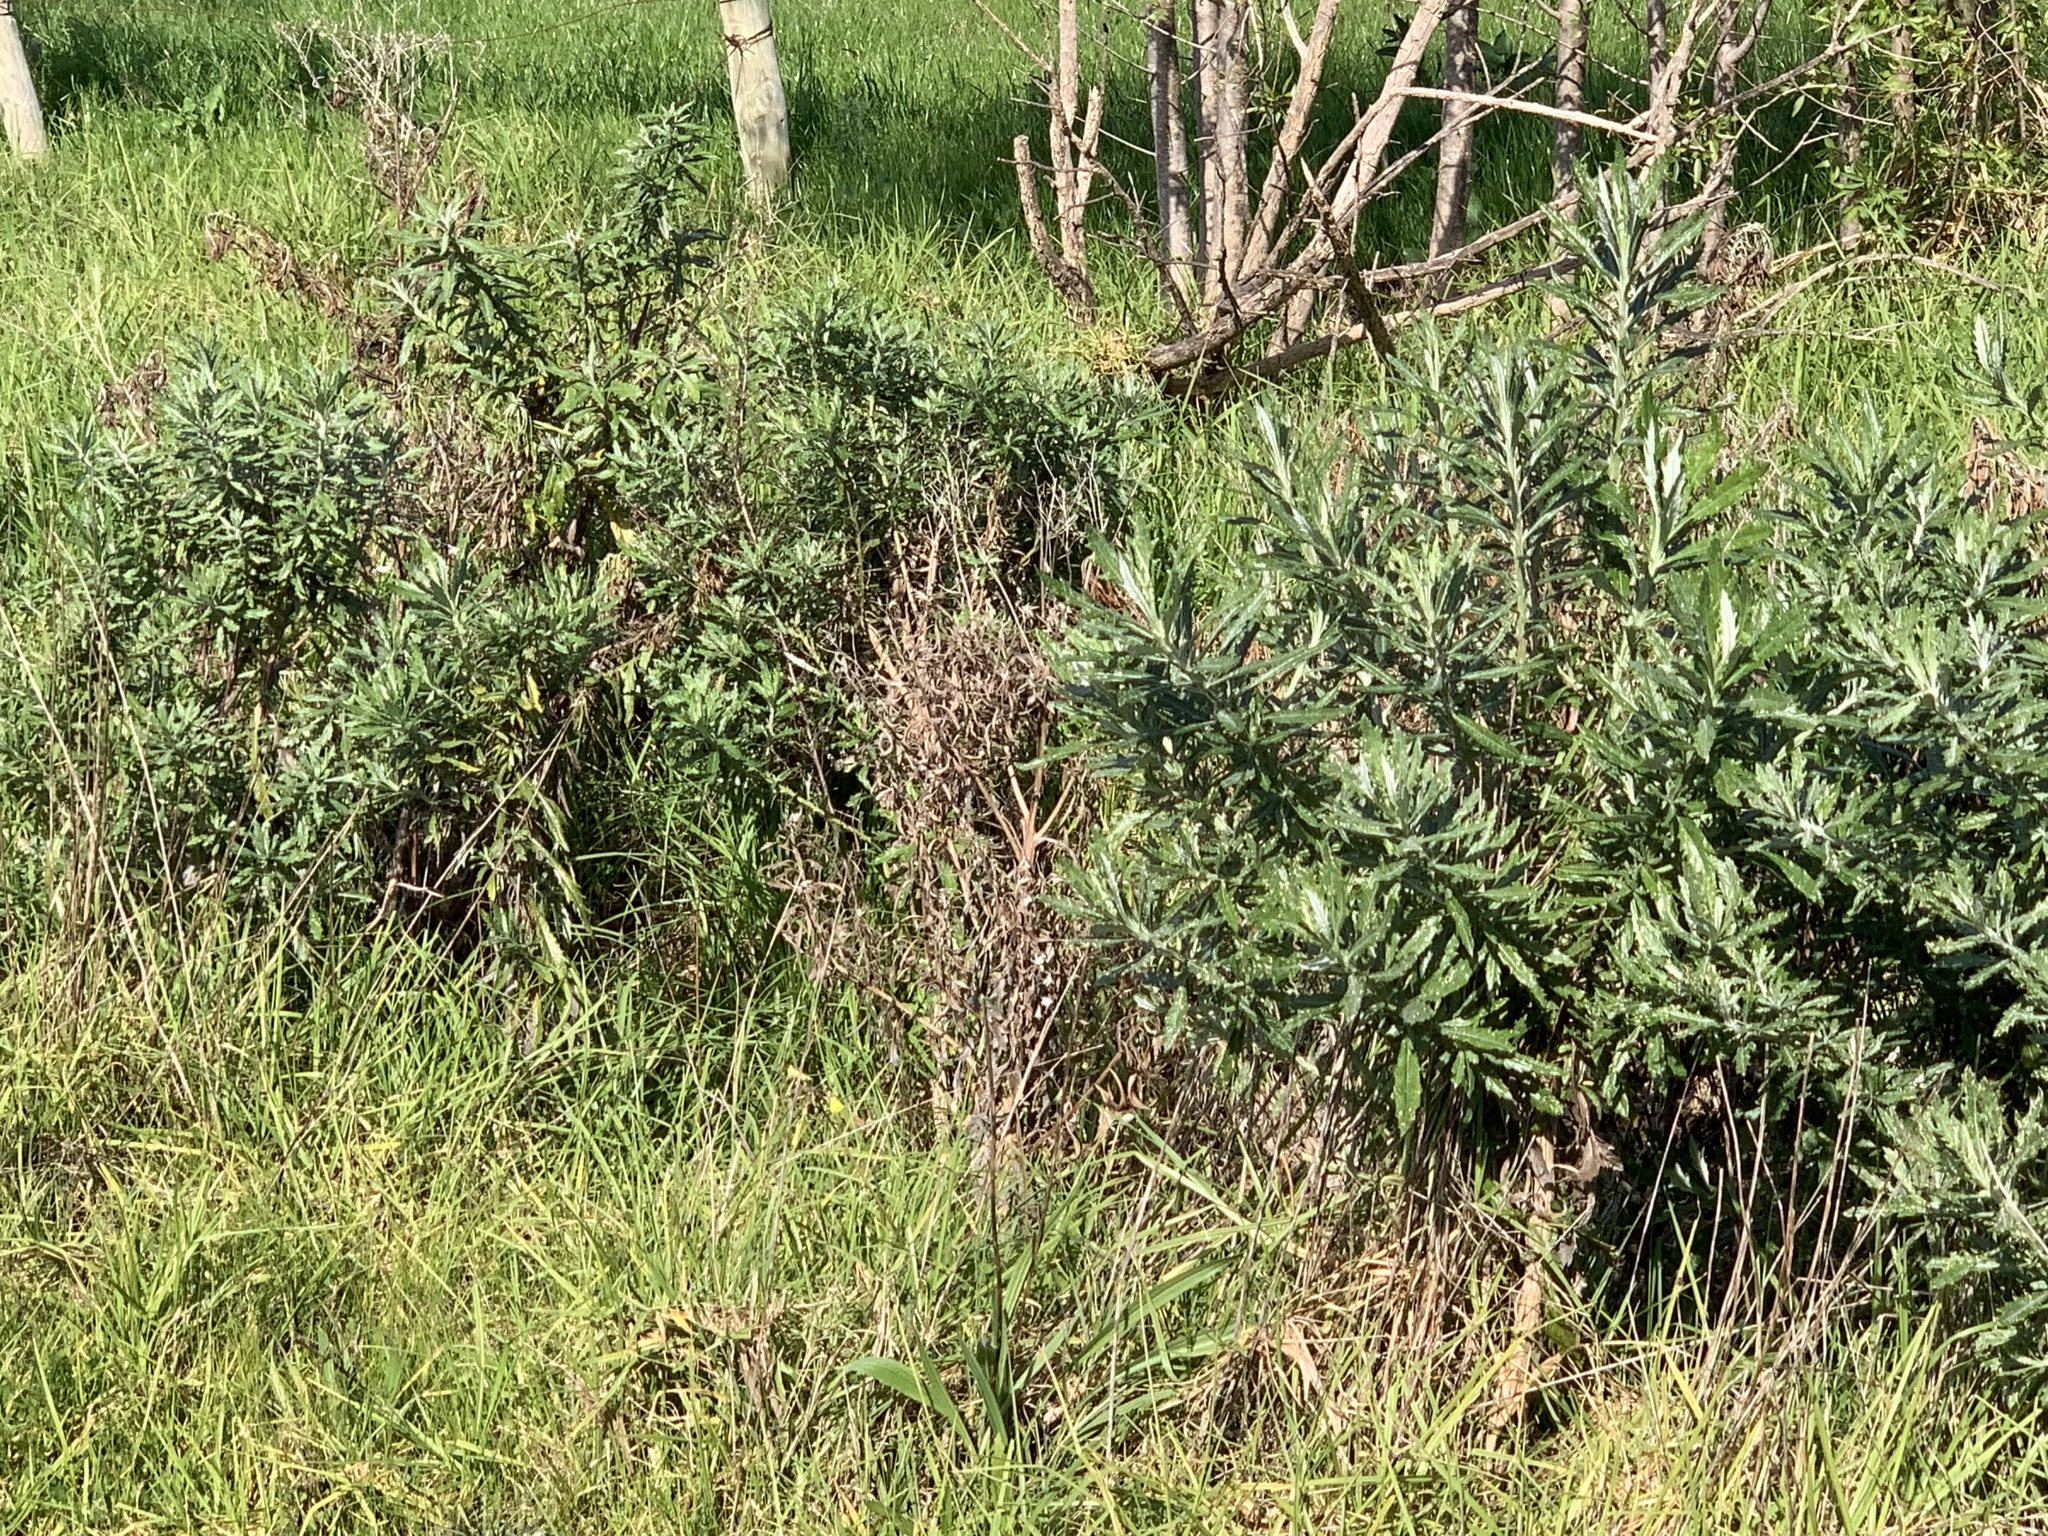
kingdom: Plantae
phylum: Tracheophyta
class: Magnoliopsida
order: Asterales
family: Asteraceae
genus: Senecio
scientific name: Senecio pterophorus
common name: Shoddy ragwort
